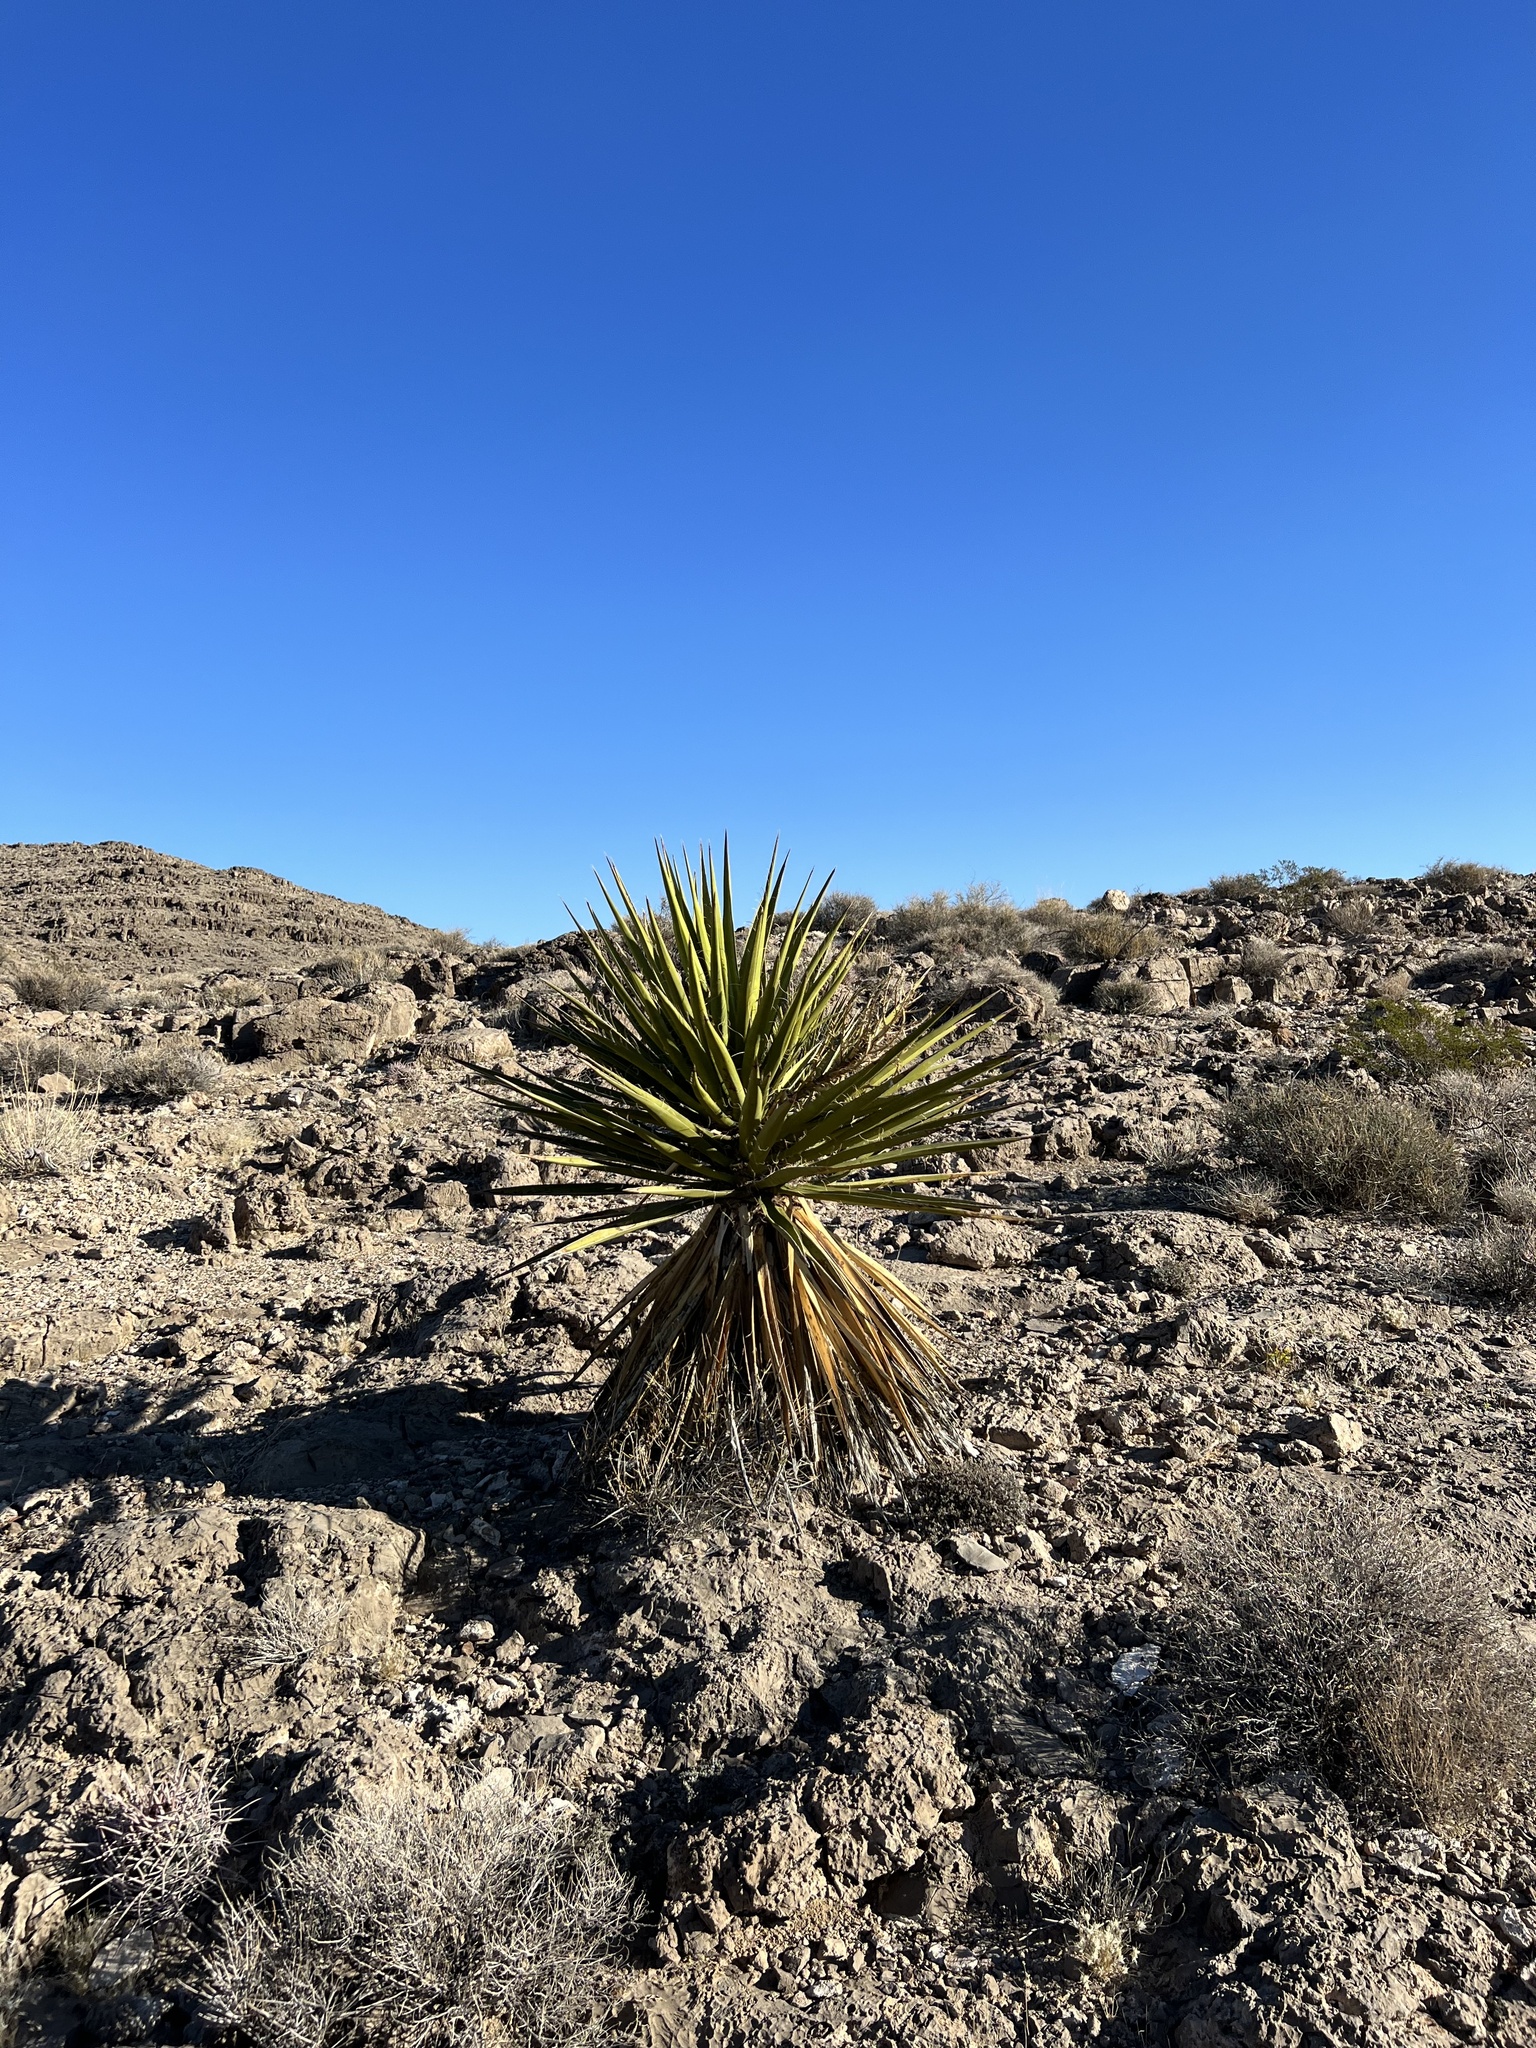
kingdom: Plantae
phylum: Tracheophyta
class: Liliopsida
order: Asparagales
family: Asparagaceae
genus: Yucca
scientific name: Yucca schidigera
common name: Mojave yucca
